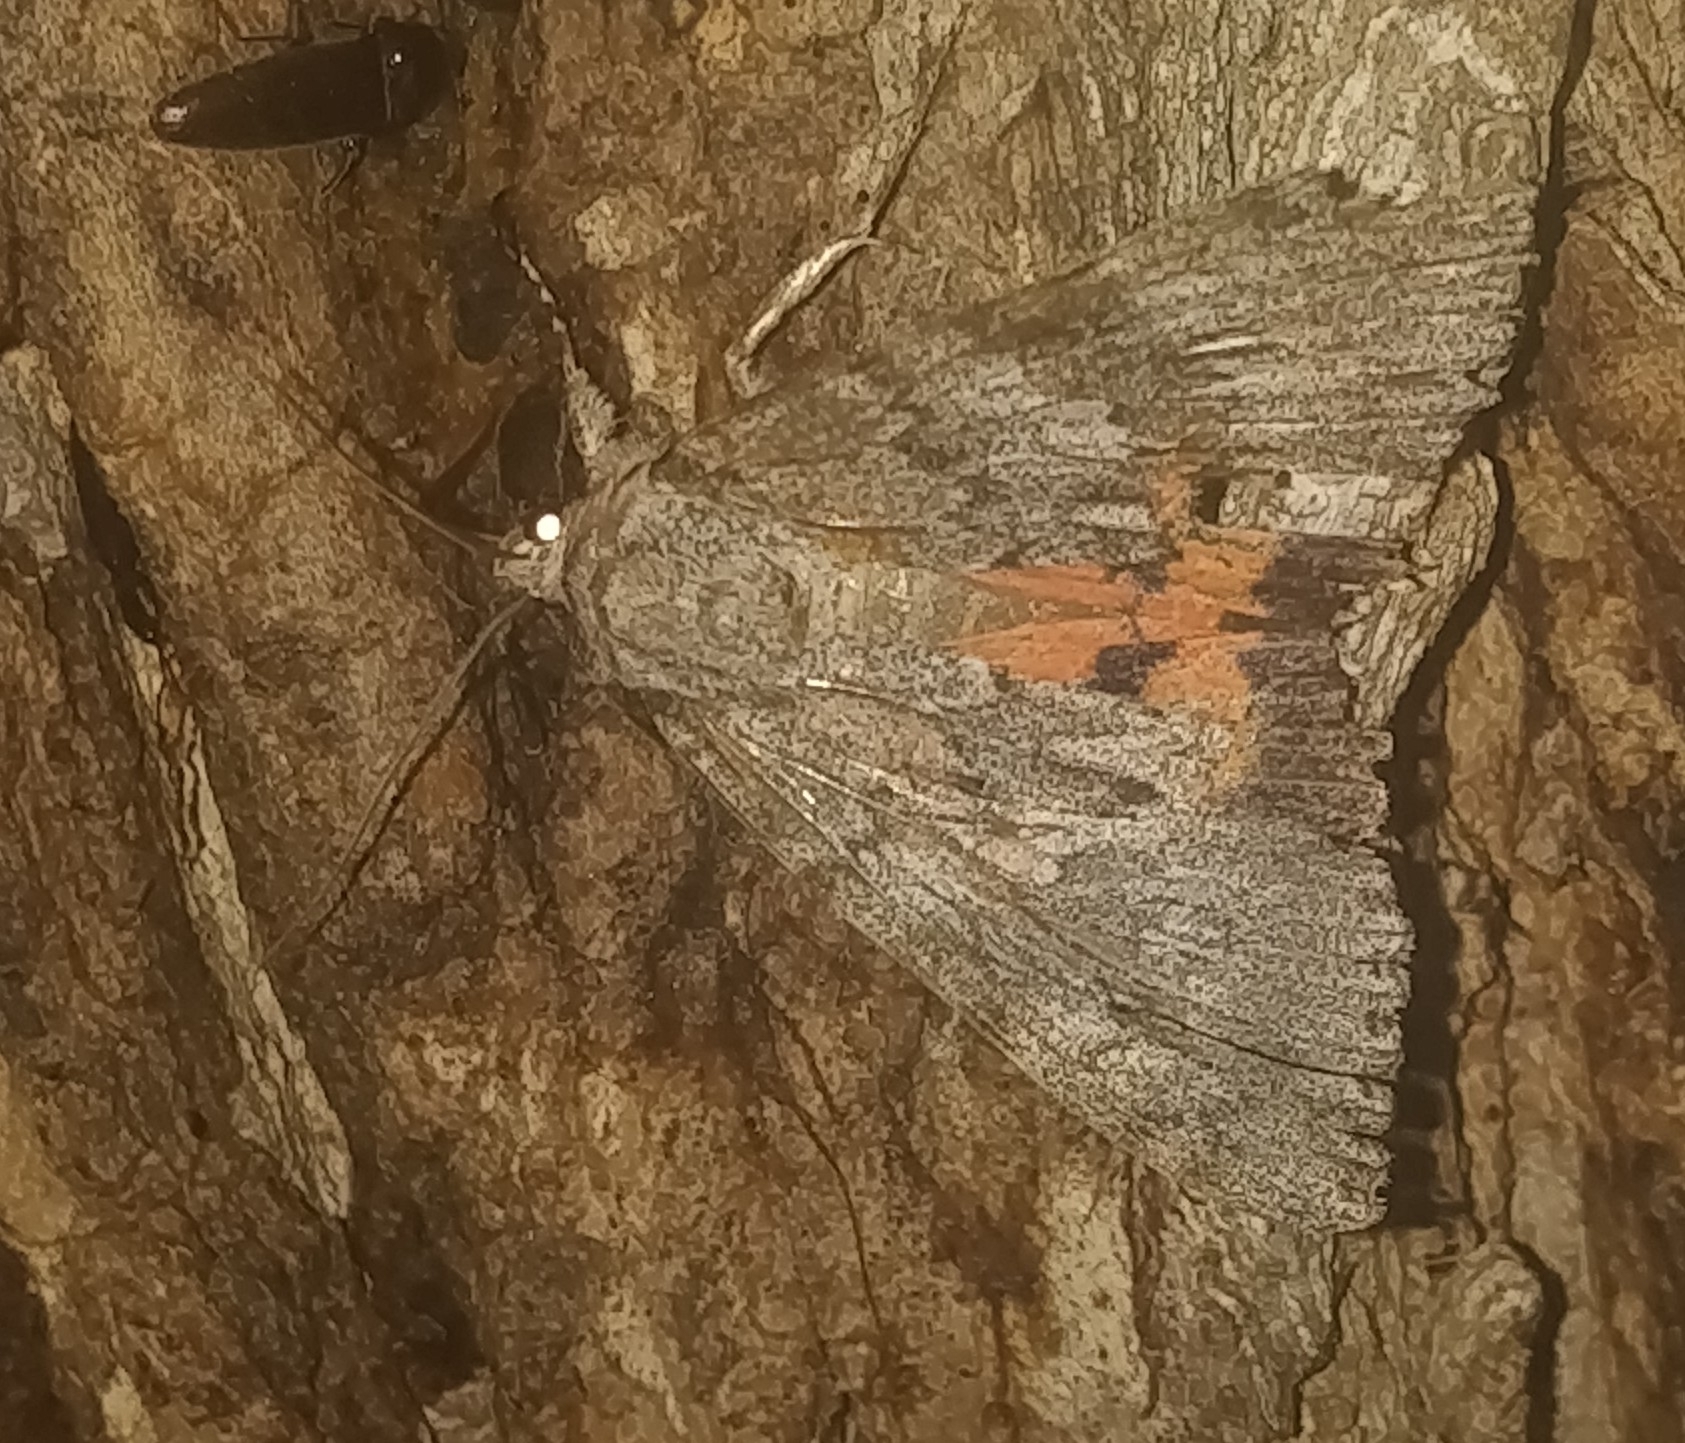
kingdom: Animalia
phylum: Arthropoda
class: Insecta
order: Lepidoptera
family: Erebidae
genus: Catocala
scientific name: Catocala meskei
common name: Meske's underwing moth
